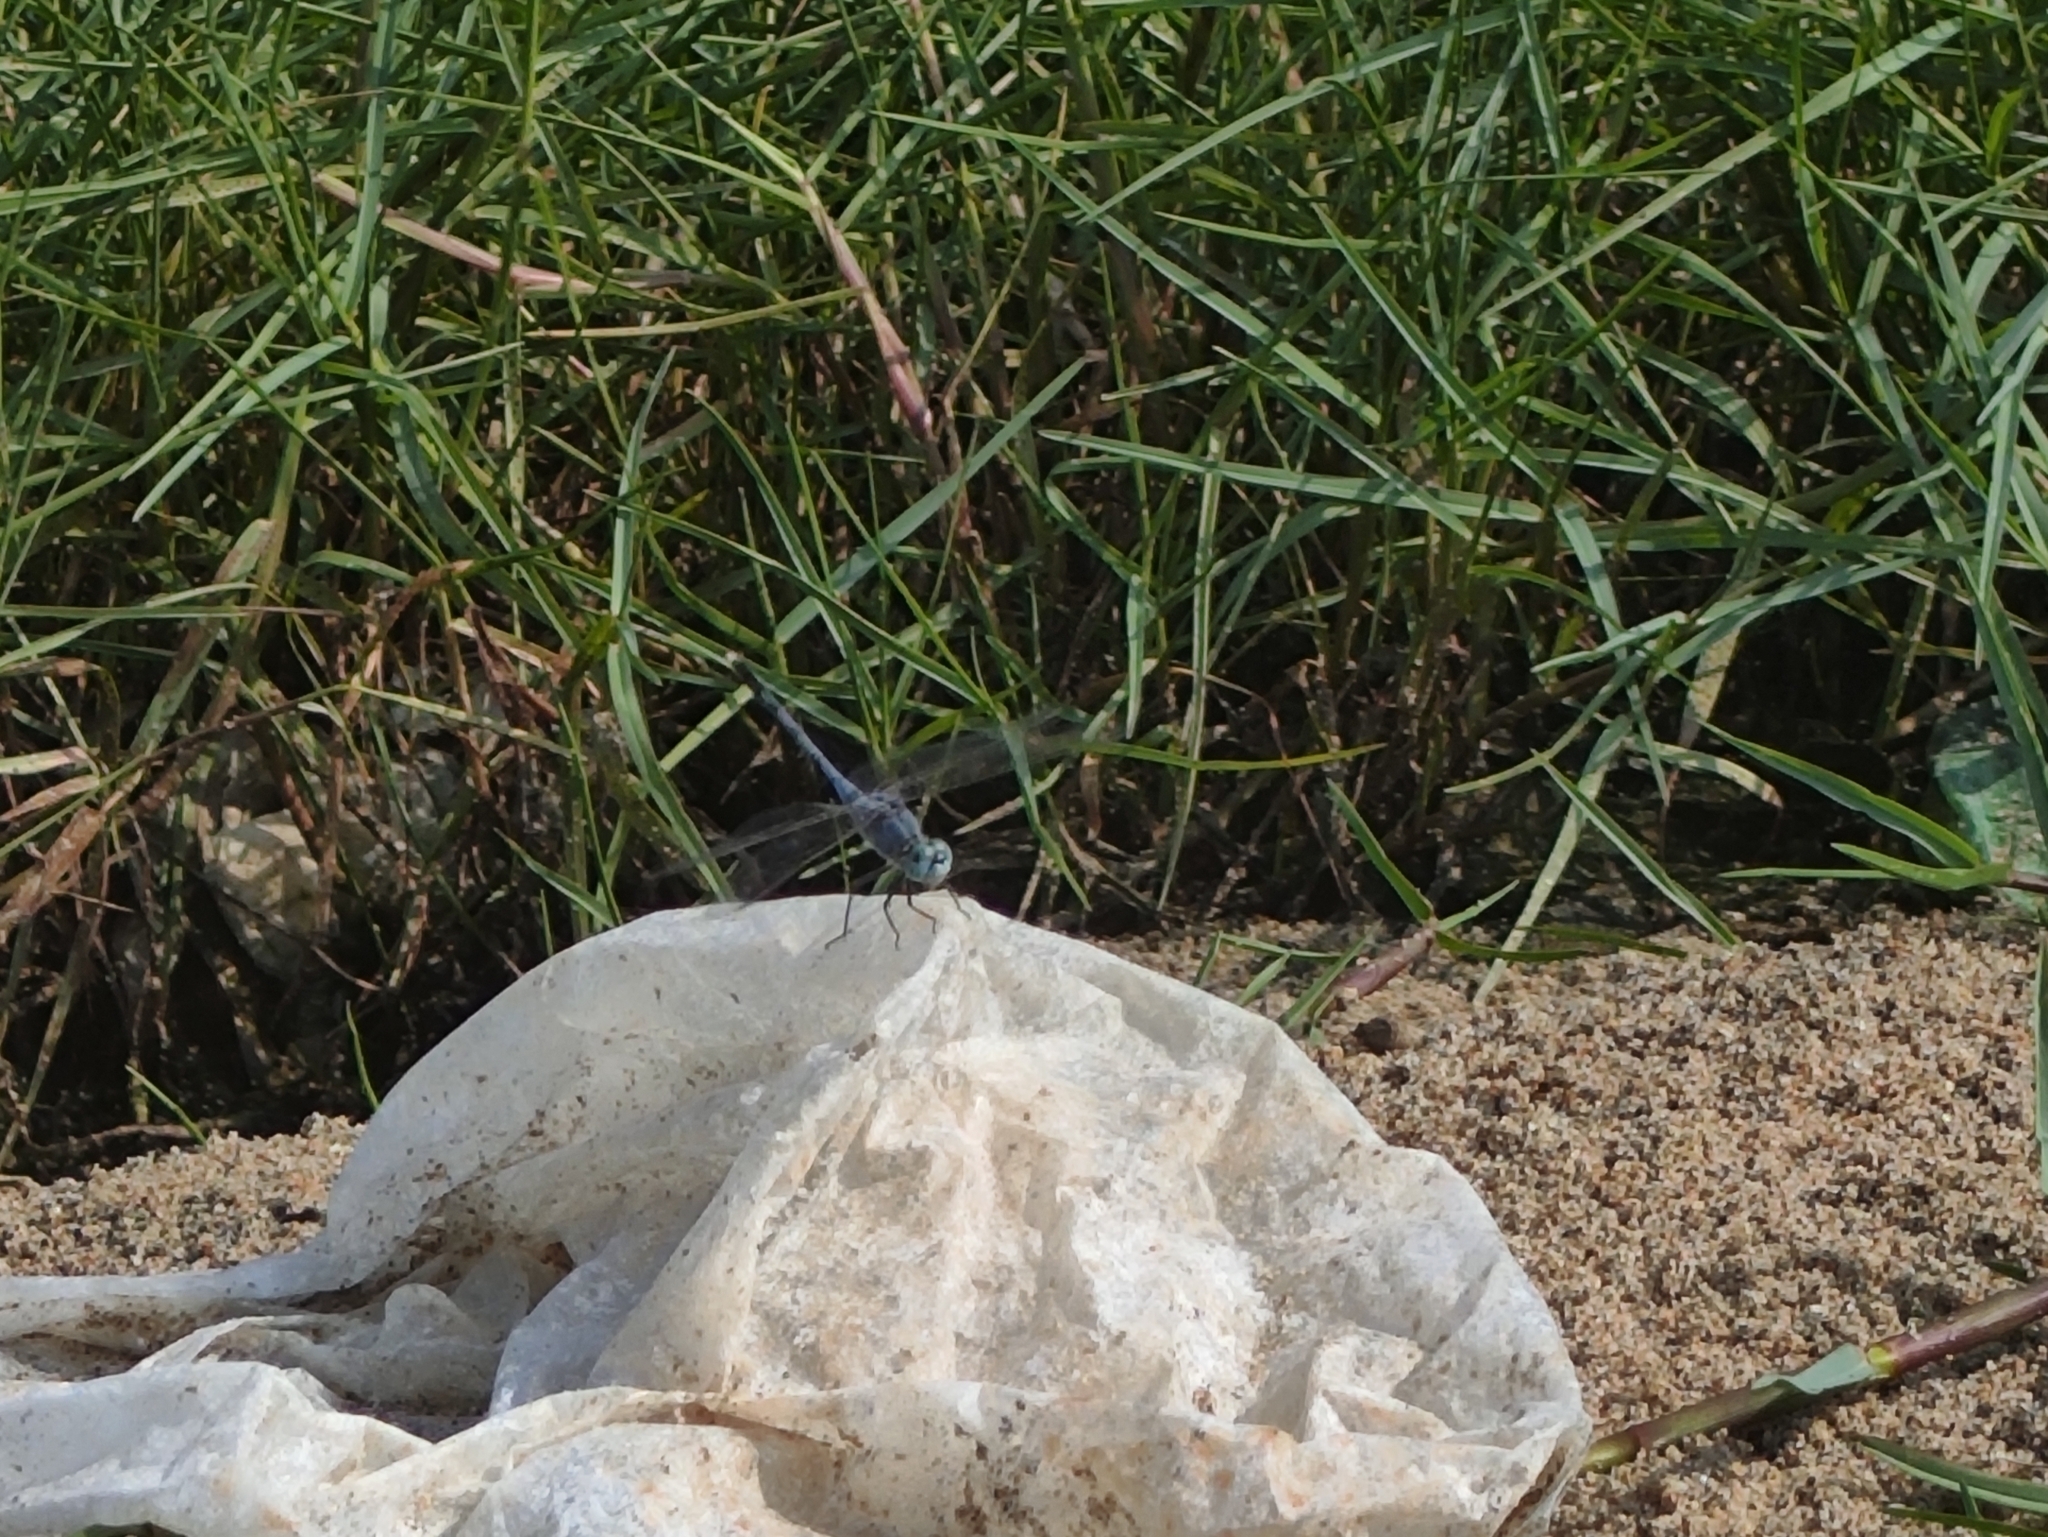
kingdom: Animalia
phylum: Arthropoda
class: Insecta
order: Odonata
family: Libellulidae
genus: Diplacodes
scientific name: Diplacodes trivialis
